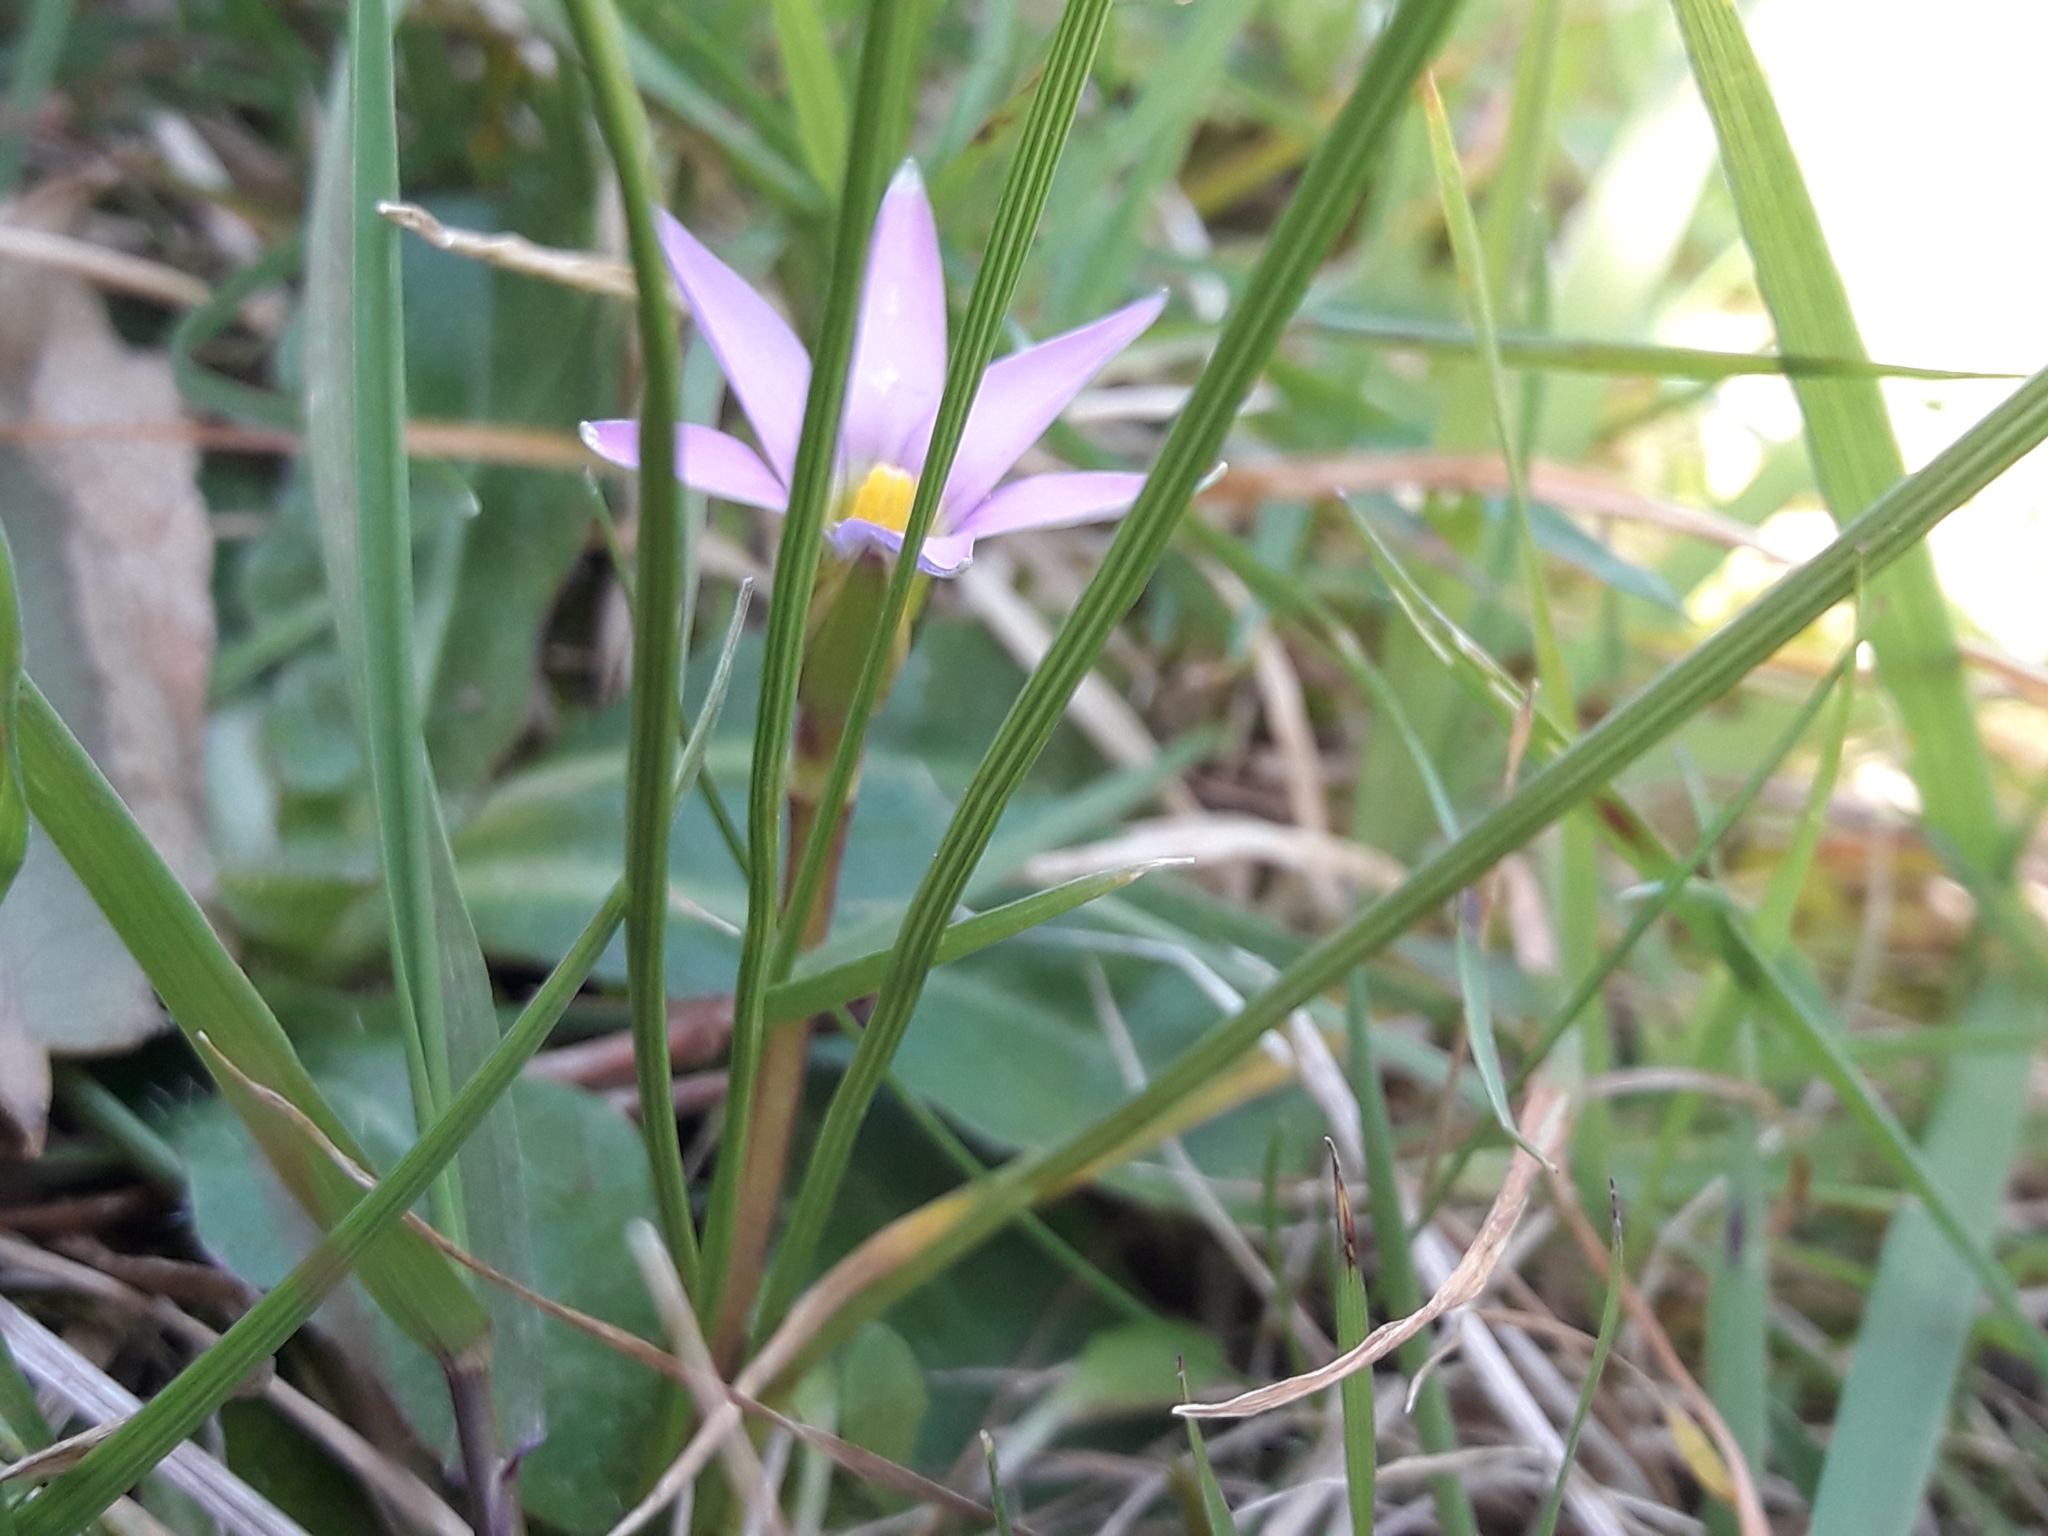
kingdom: Plantae
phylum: Tracheophyta
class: Liliopsida
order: Asparagales
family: Iridaceae
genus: Romulea
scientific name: Romulea rosea
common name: Oniongrass
